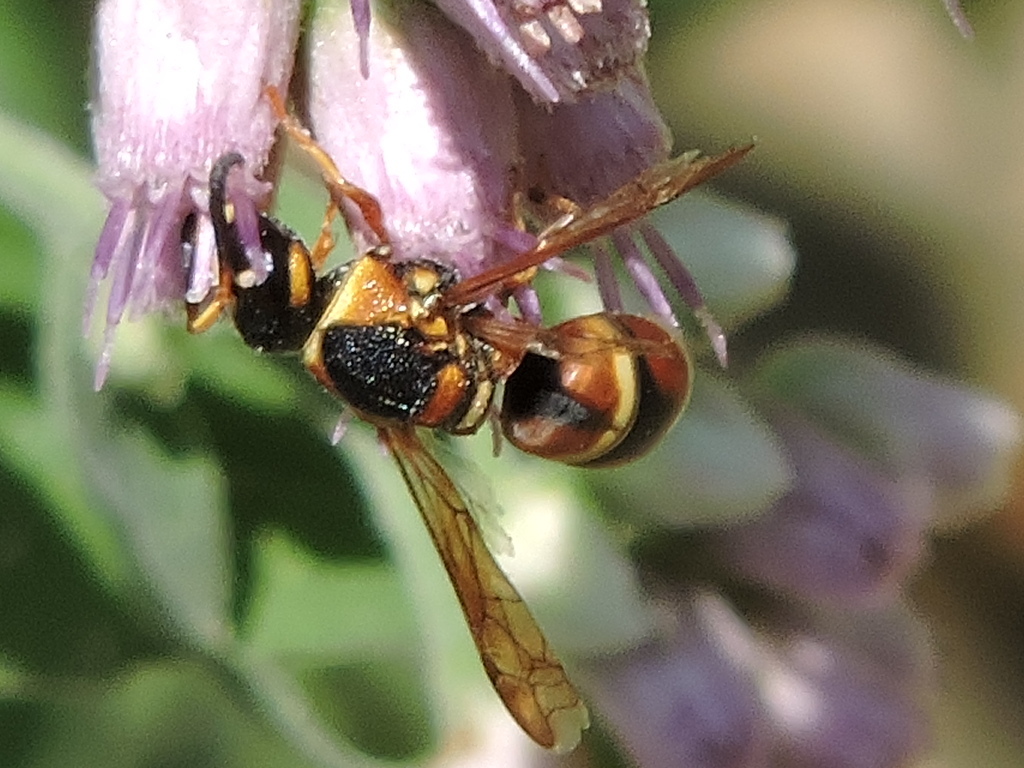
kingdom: Animalia
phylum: Arthropoda
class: Insecta
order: Hymenoptera
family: Eumenidae
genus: Euodynerus
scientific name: Euodynerus hidalgo
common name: Wasp
